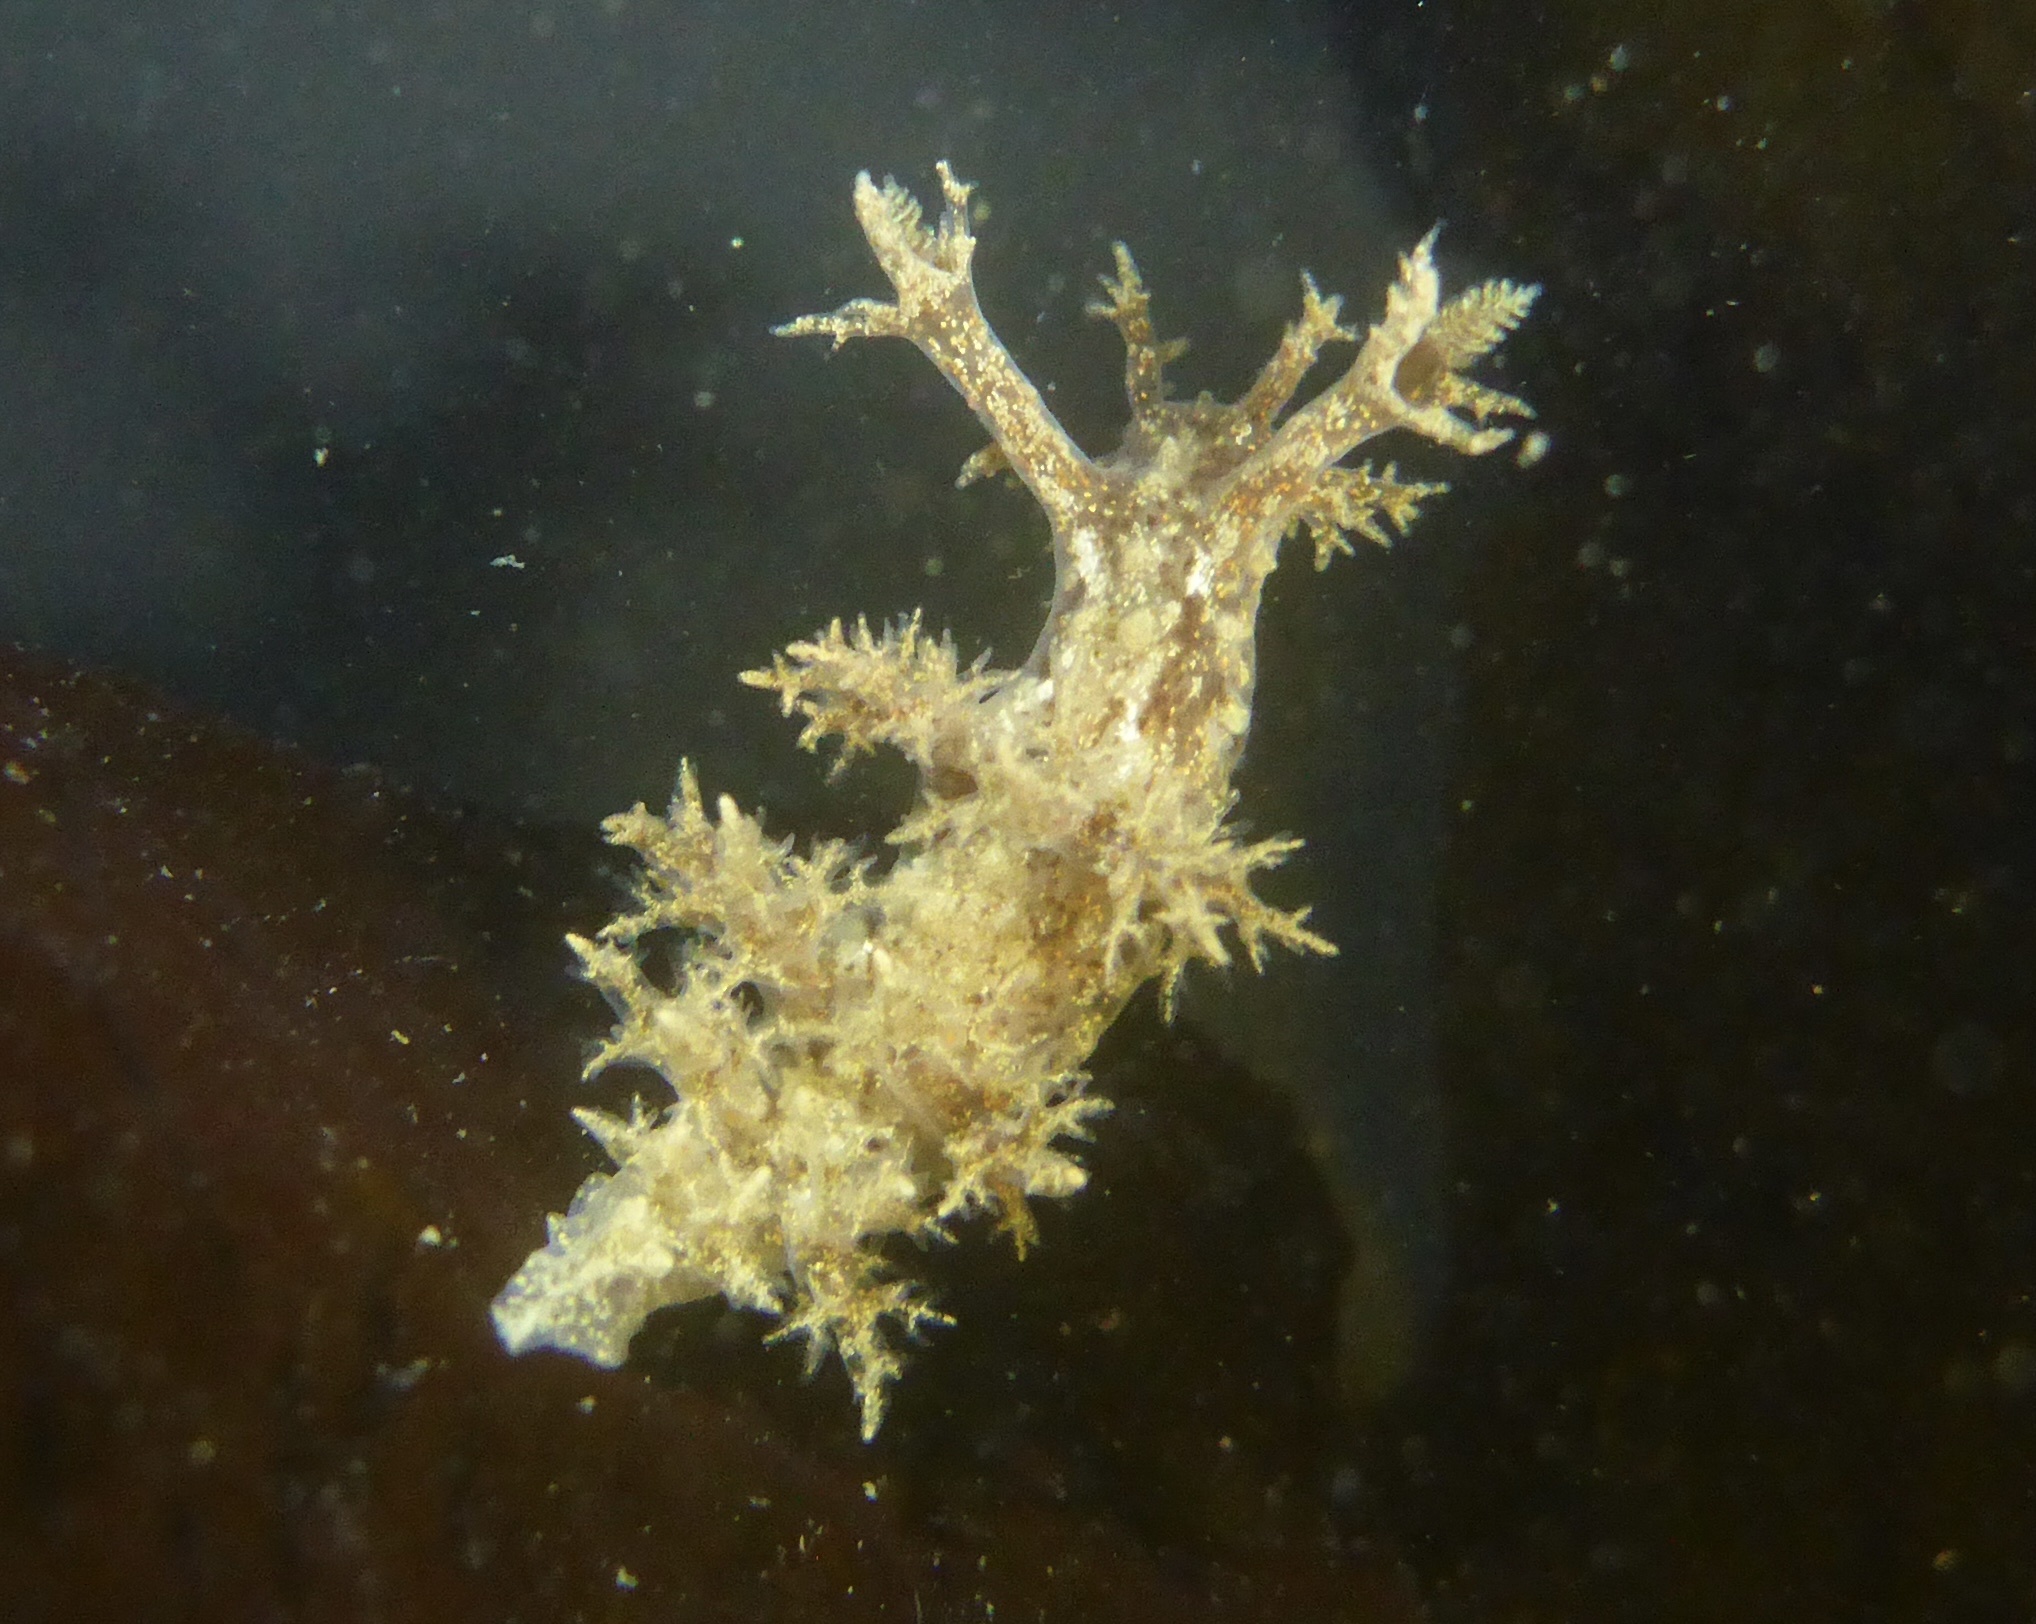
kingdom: Animalia
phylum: Mollusca
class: Gastropoda
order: Nudibranchia
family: Dendronotidae
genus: Dendronotus
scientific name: Dendronotus venustus
